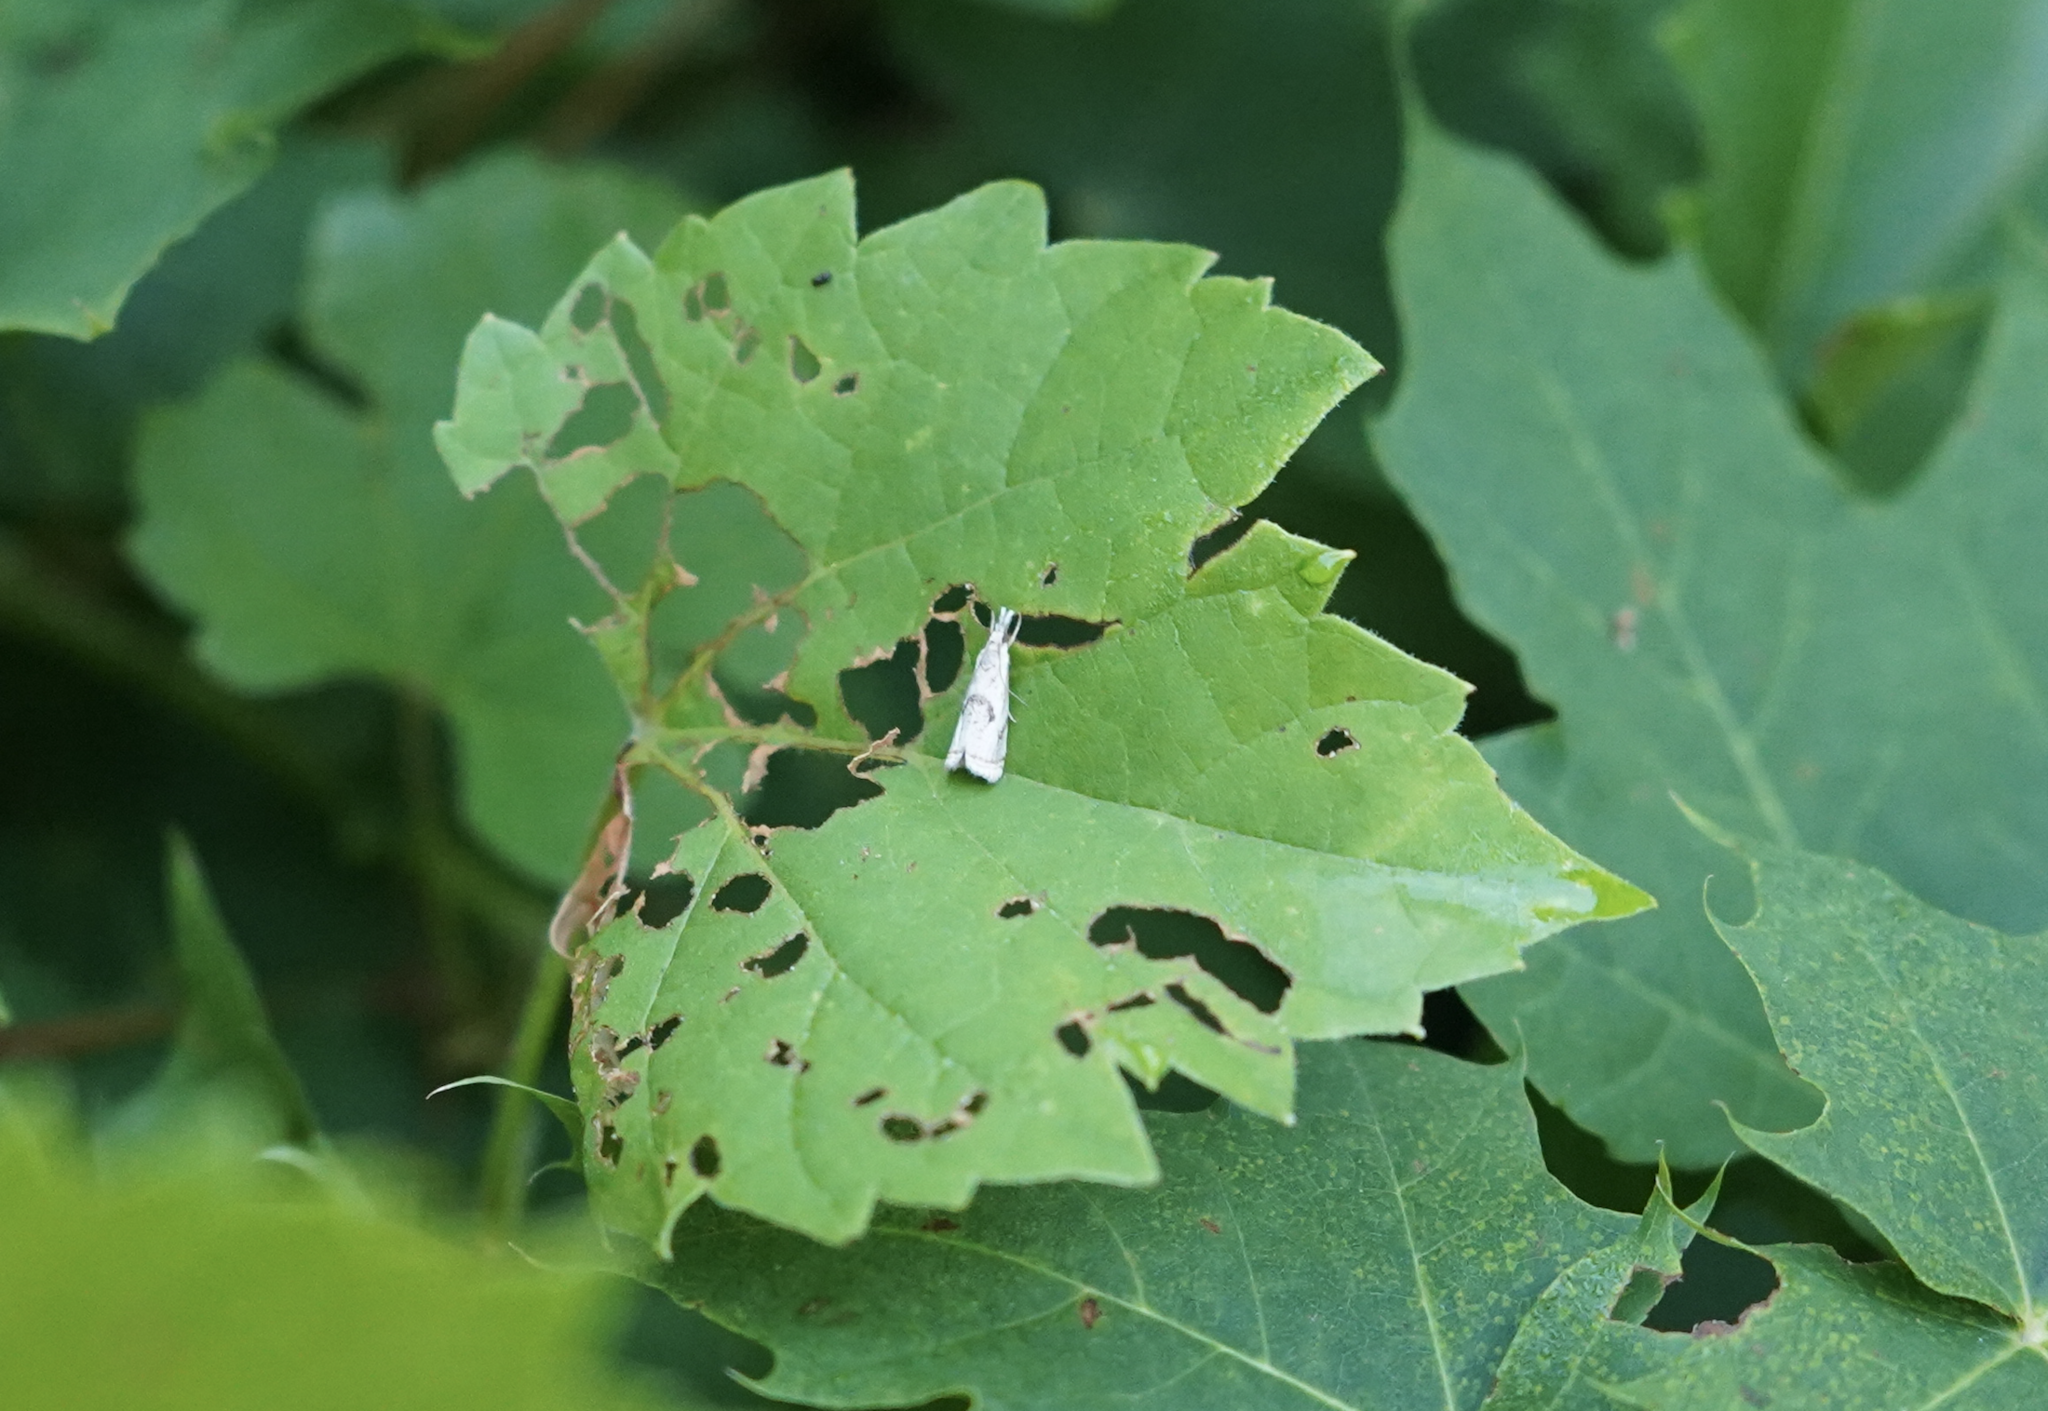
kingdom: Animalia
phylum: Arthropoda
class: Insecta
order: Lepidoptera
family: Crambidae
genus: Microcrambus
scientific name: Microcrambus elegans
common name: Elegant grass-veneer
